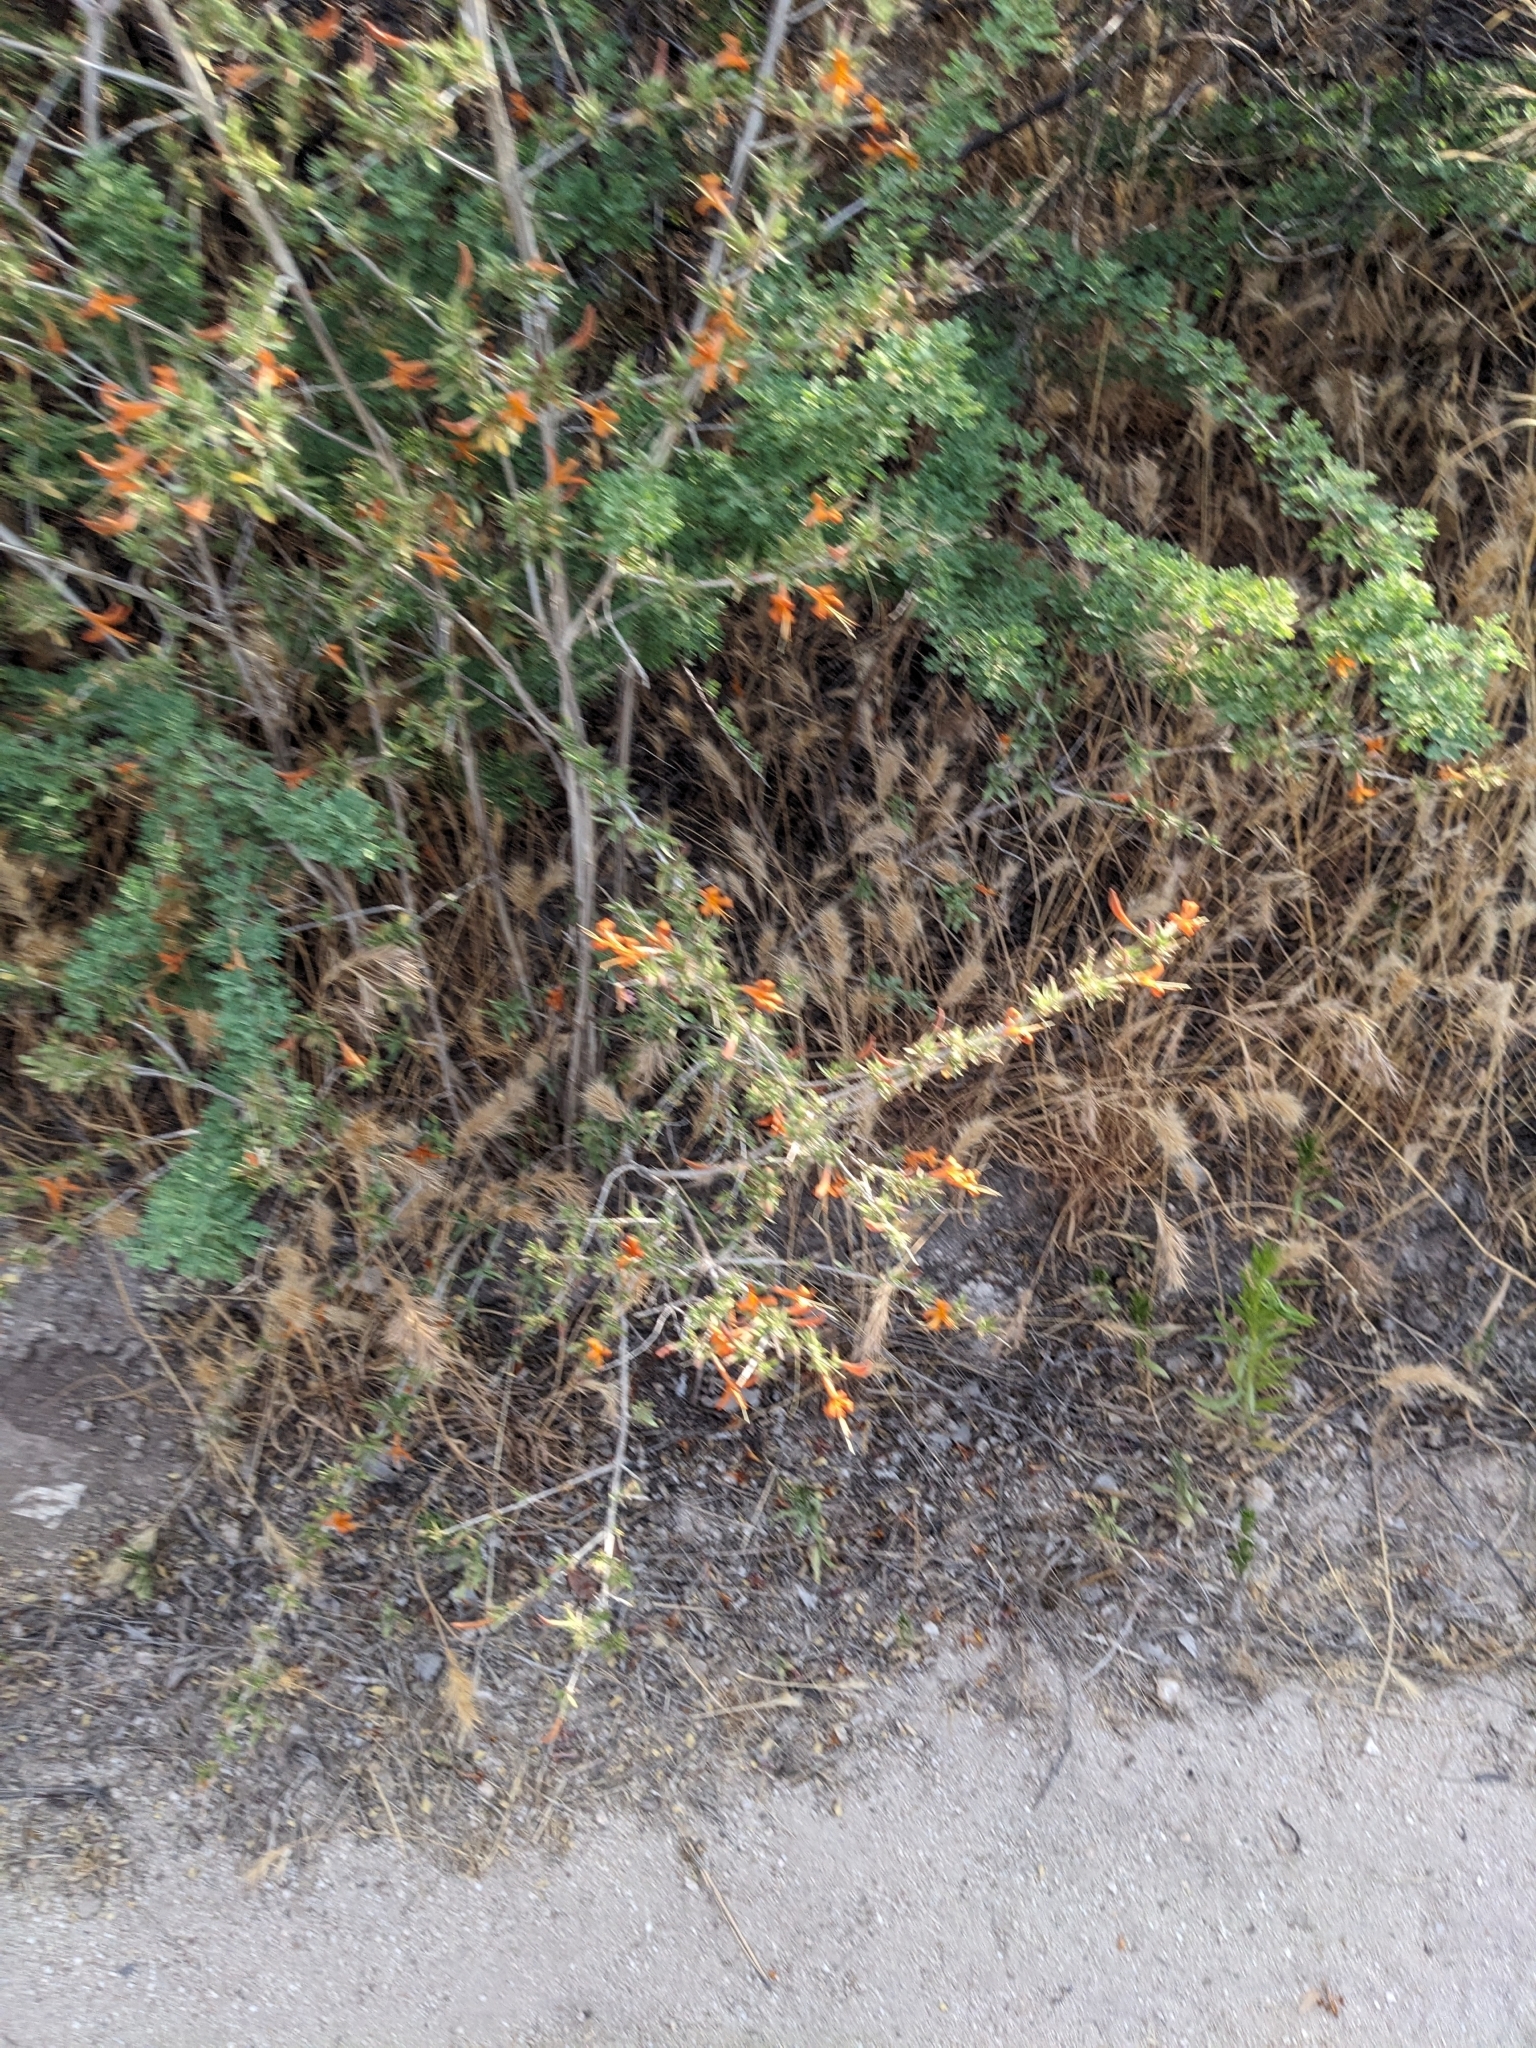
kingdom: Plantae
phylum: Tracheophyta
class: Magnoliopsida
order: Lamiales
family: Acanthaceae
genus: Anisacanthus
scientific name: Anisacanthus thurberi
